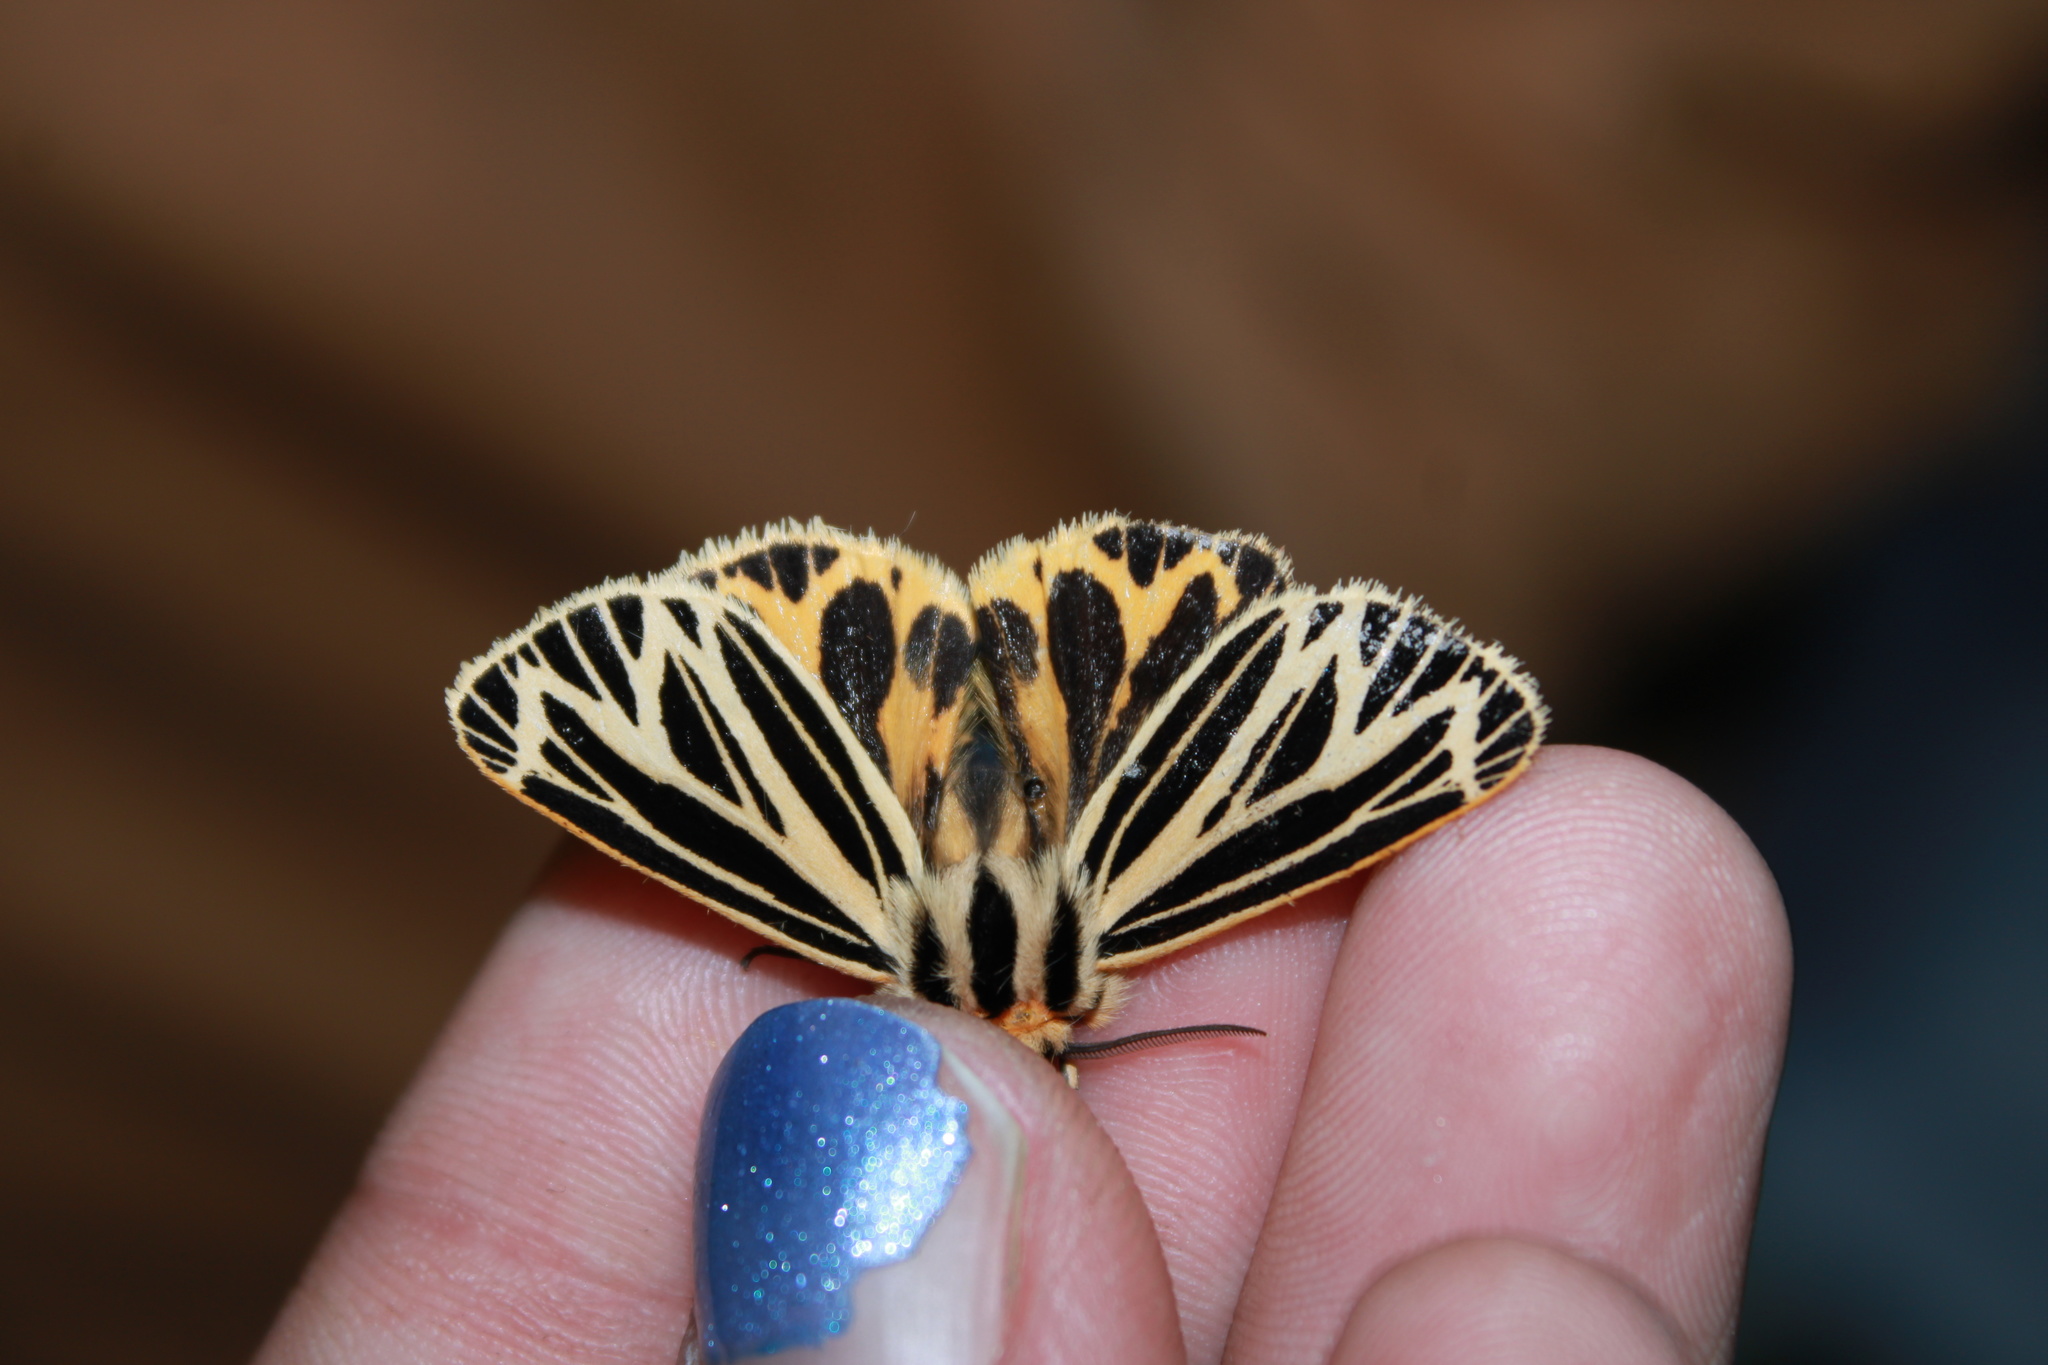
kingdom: Animalia
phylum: Arthropoda
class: Insecta
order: Lepidoptera
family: Erebidae
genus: Grammia
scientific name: Grammia virguncula
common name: Little tiger moth
